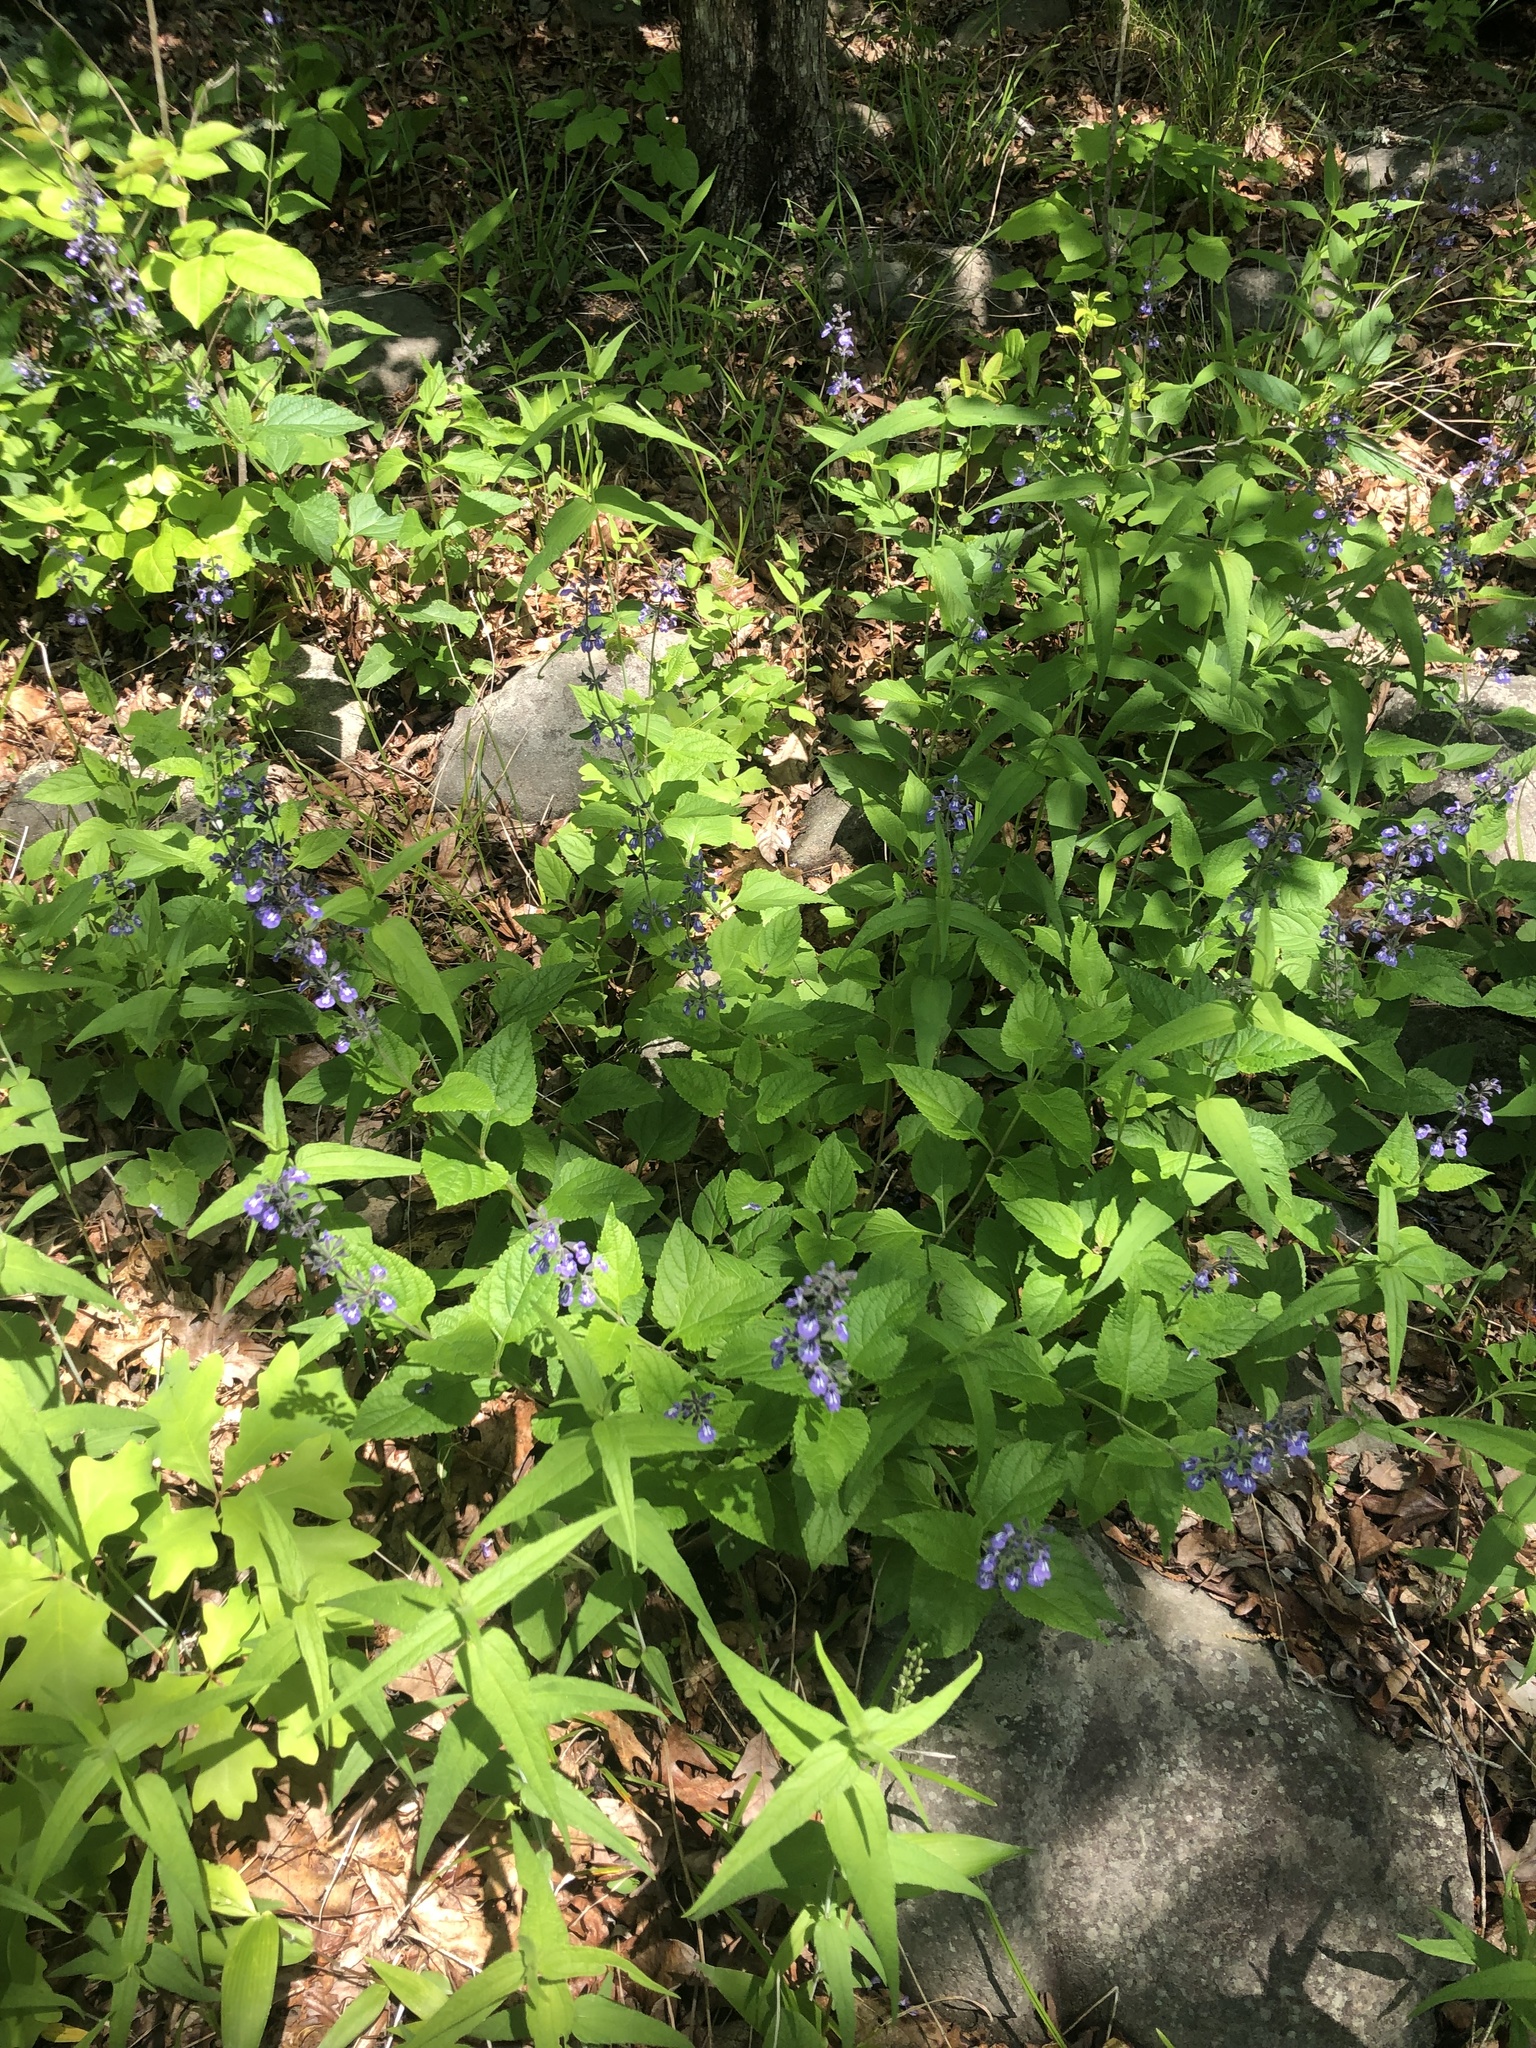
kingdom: Plantae
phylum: Tracheophyta
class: Magnoliopsida
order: Lamiales
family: Lamiaceae
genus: Salvia
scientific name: Salvia urticifolia
